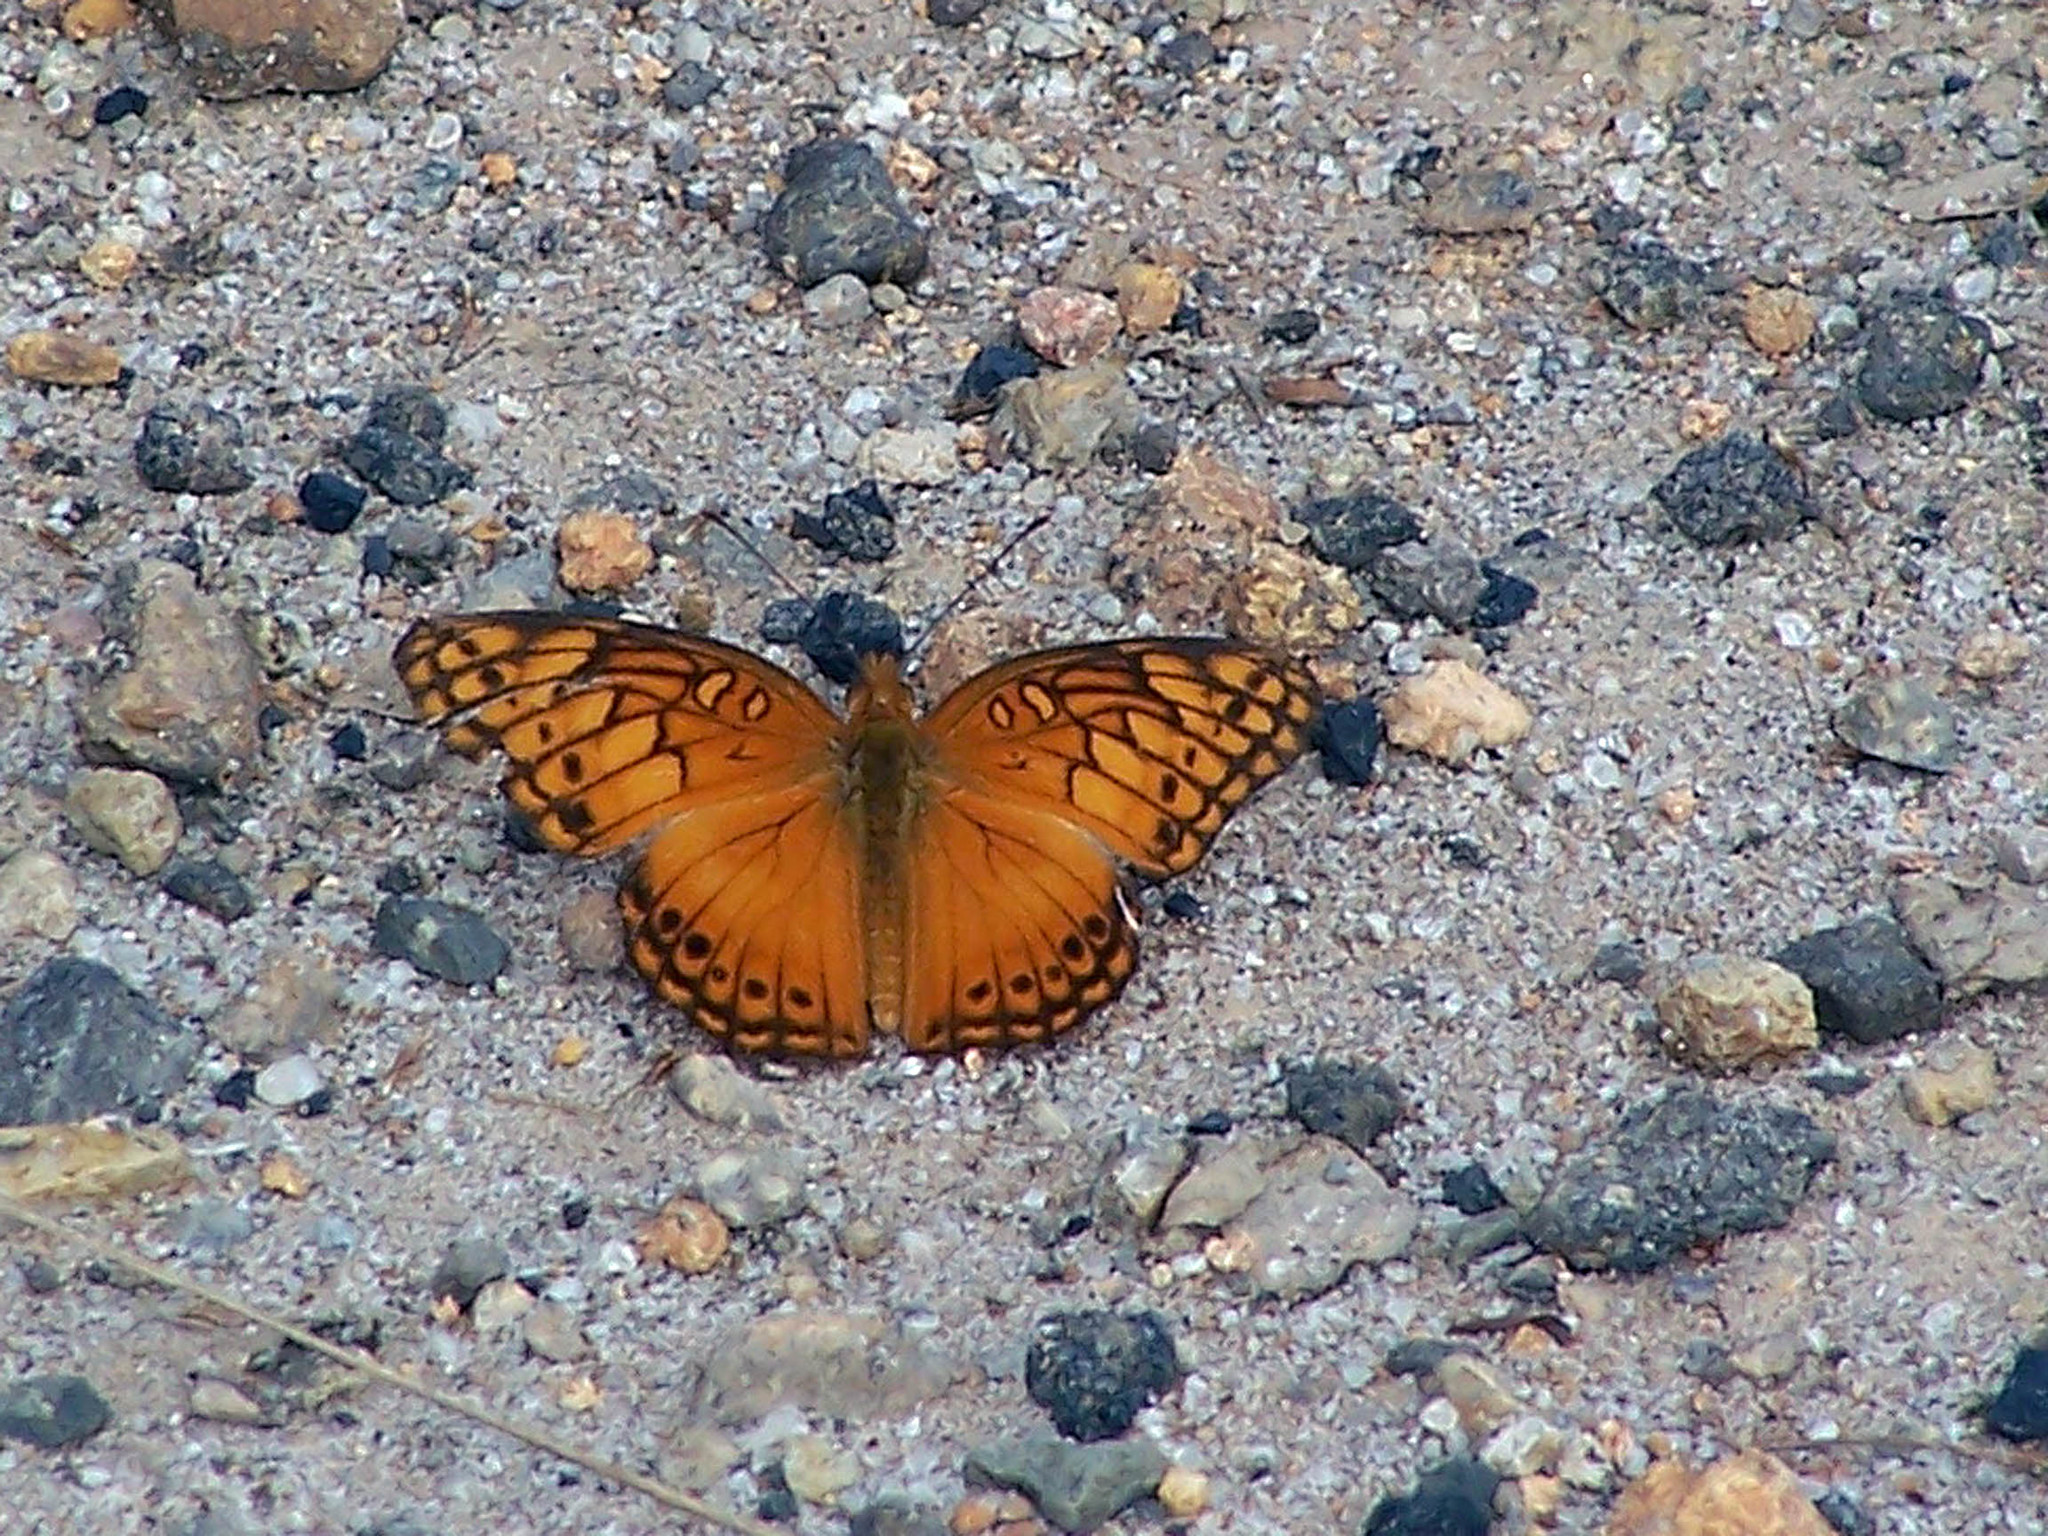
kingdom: Animalia
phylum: Arthropoda
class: Insecta
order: Lepidoptera
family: Nymphalidae
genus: Euptoieta
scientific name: Euptoieta hegesia
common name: Mexican fritillary
